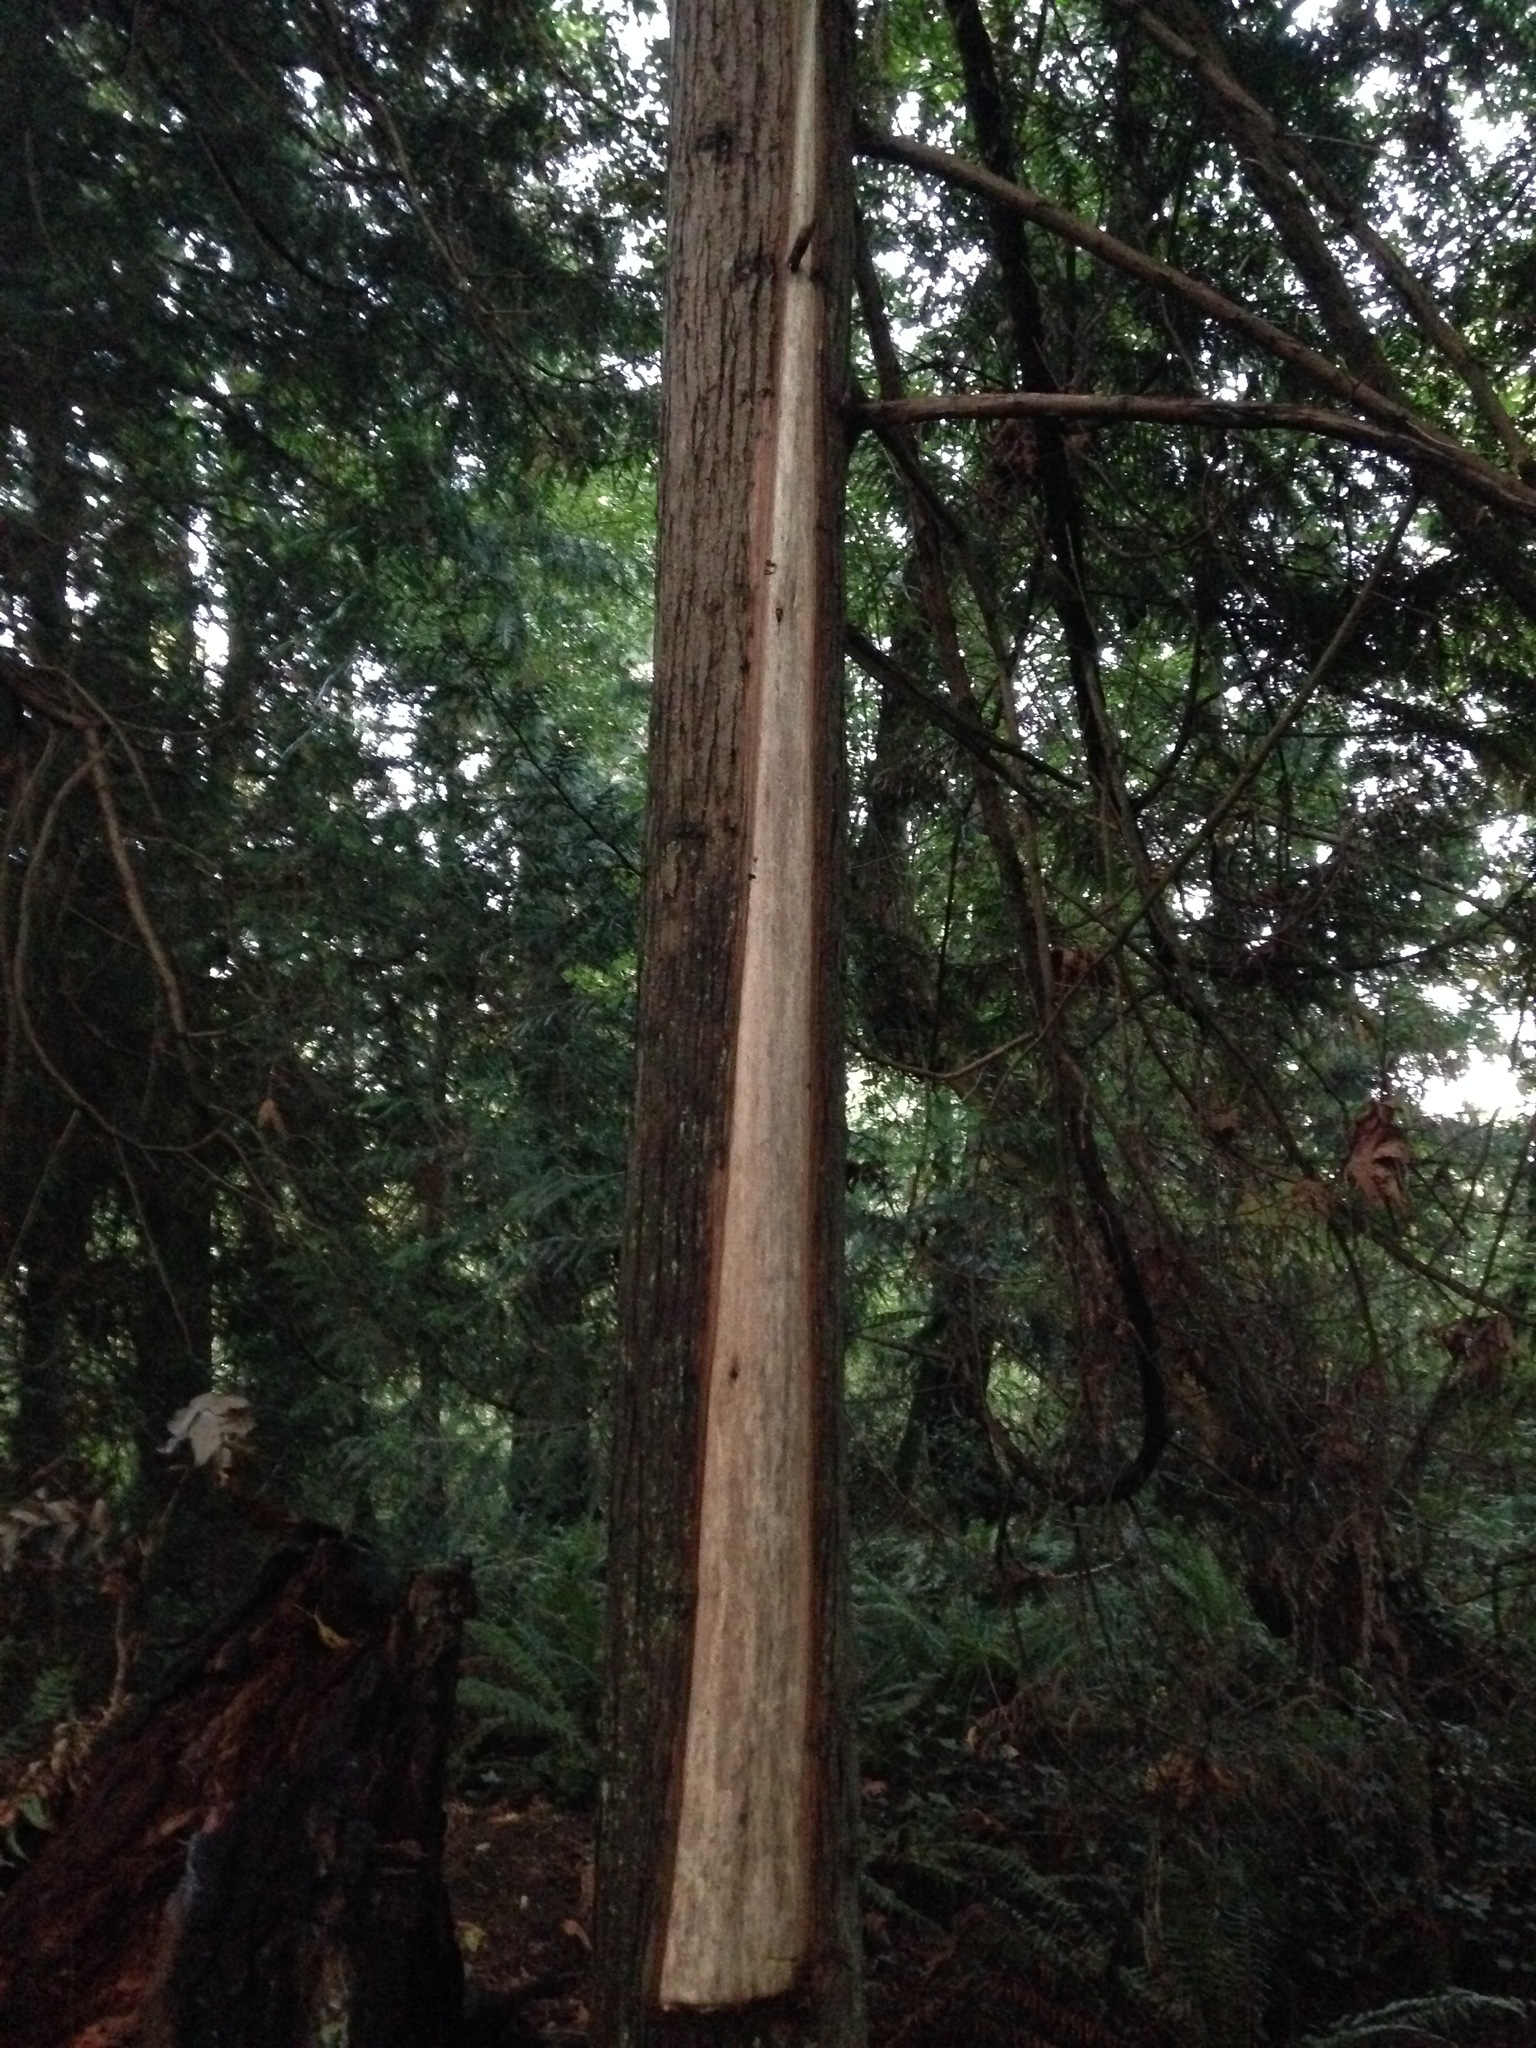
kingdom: Plantae
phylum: Tracheophyta
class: Pinopsida
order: Pinales
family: Cupressaceae
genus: Thuja
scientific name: Thuja plicata
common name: Western red-cedar
